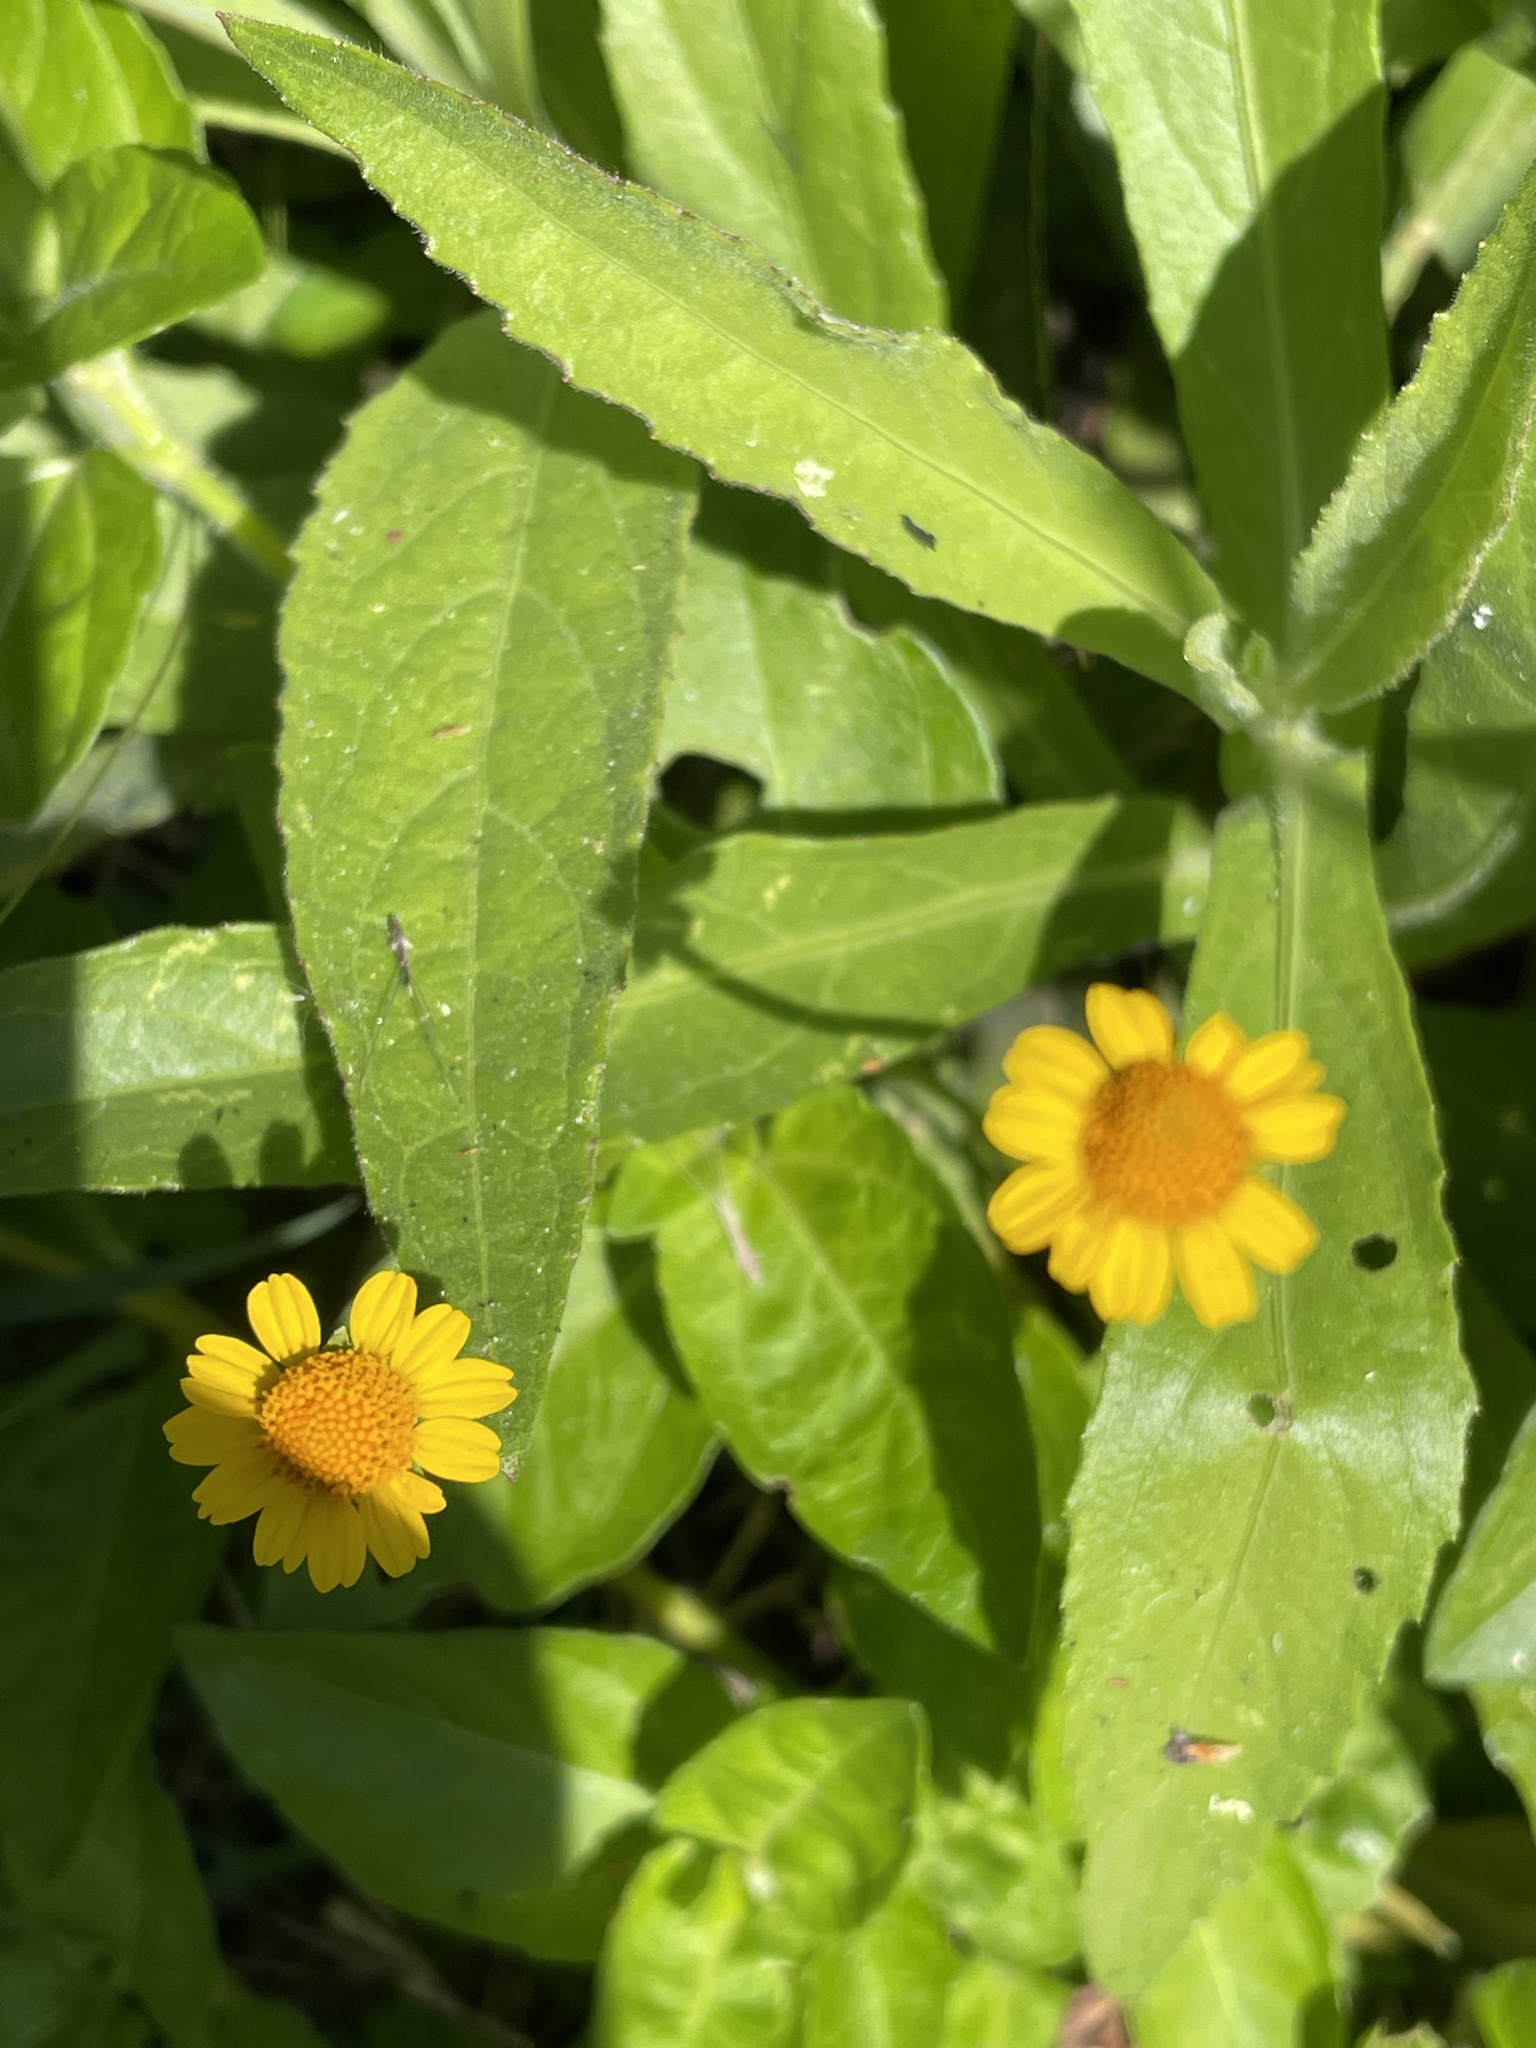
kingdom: Plantae
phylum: Tracheophyta
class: Magnoliopsida
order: Asterales
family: Asteraceae
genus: Acmella
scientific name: Acmella repens
